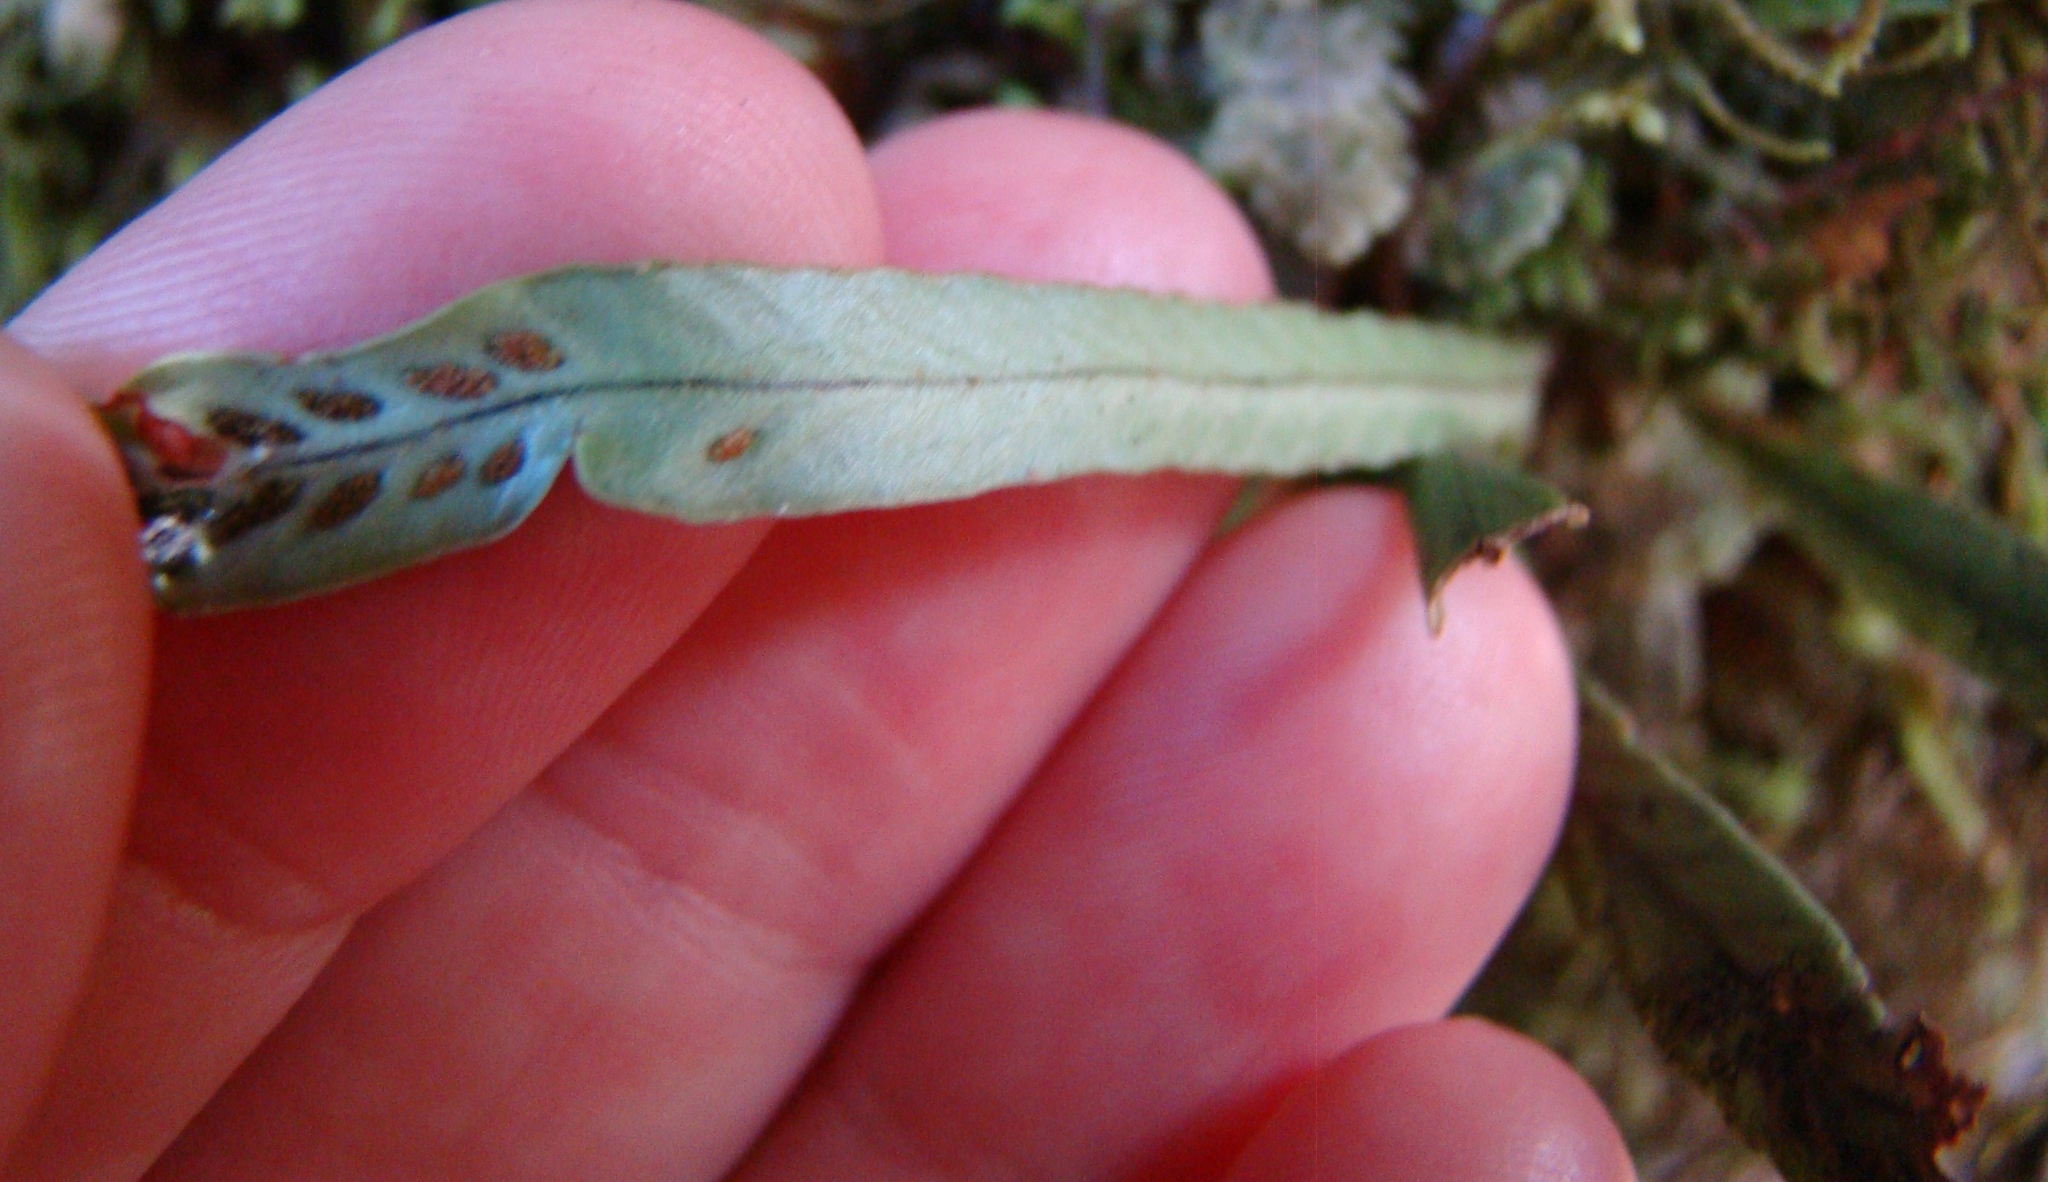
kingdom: Plantae
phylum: Tracheophyta
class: Polypodiopsida
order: Polypodiales
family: Polypodiaceae
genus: Notogrammitis
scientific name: Notogrammitis
